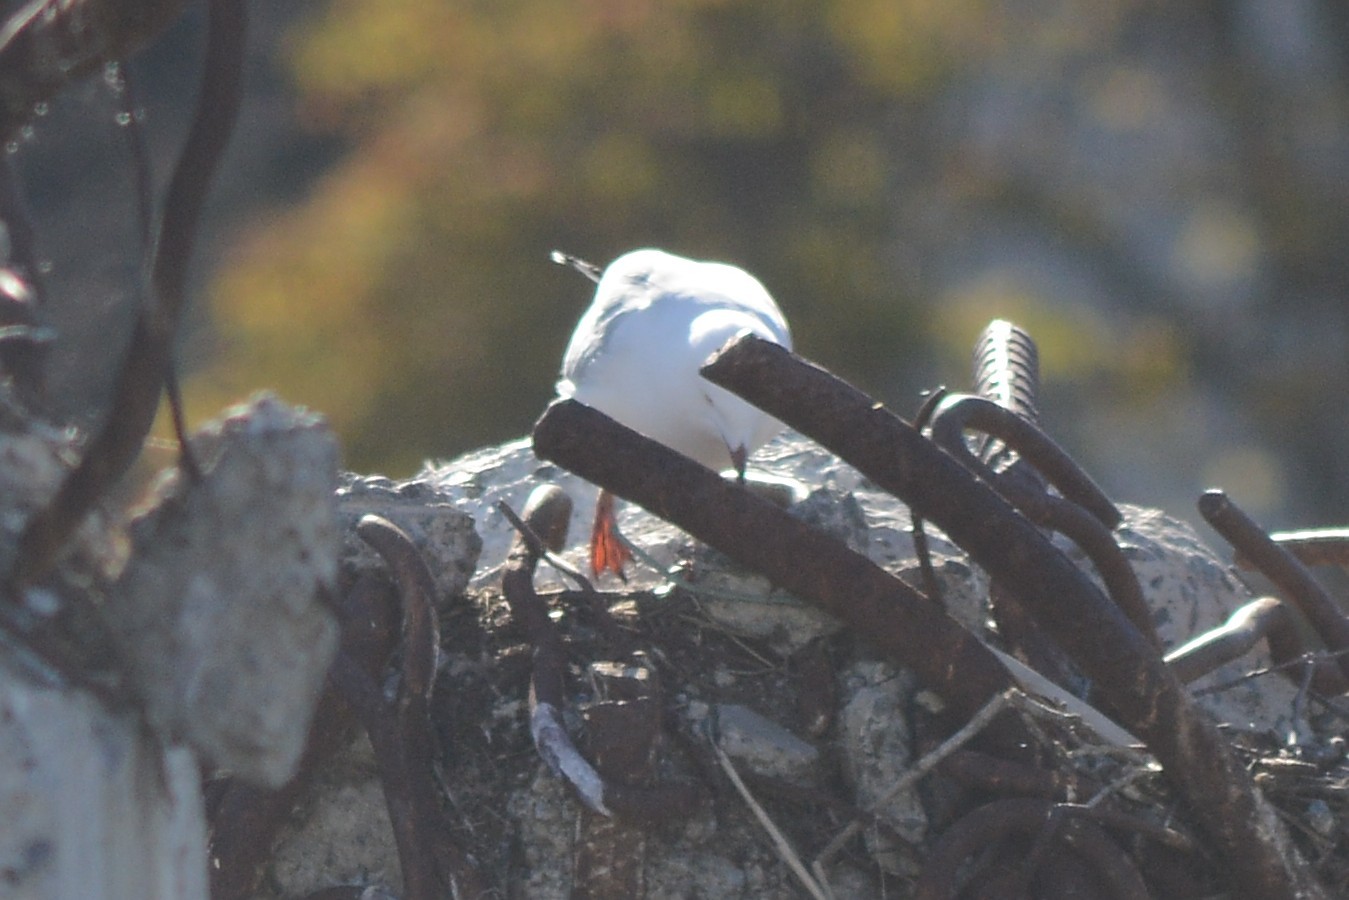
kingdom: Animalia
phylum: Chordata
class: Aves
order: Charadriiformes
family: Laridae
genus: Chroicocephalus
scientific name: Chroicocephalus novaehollandiae
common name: Silver gull
